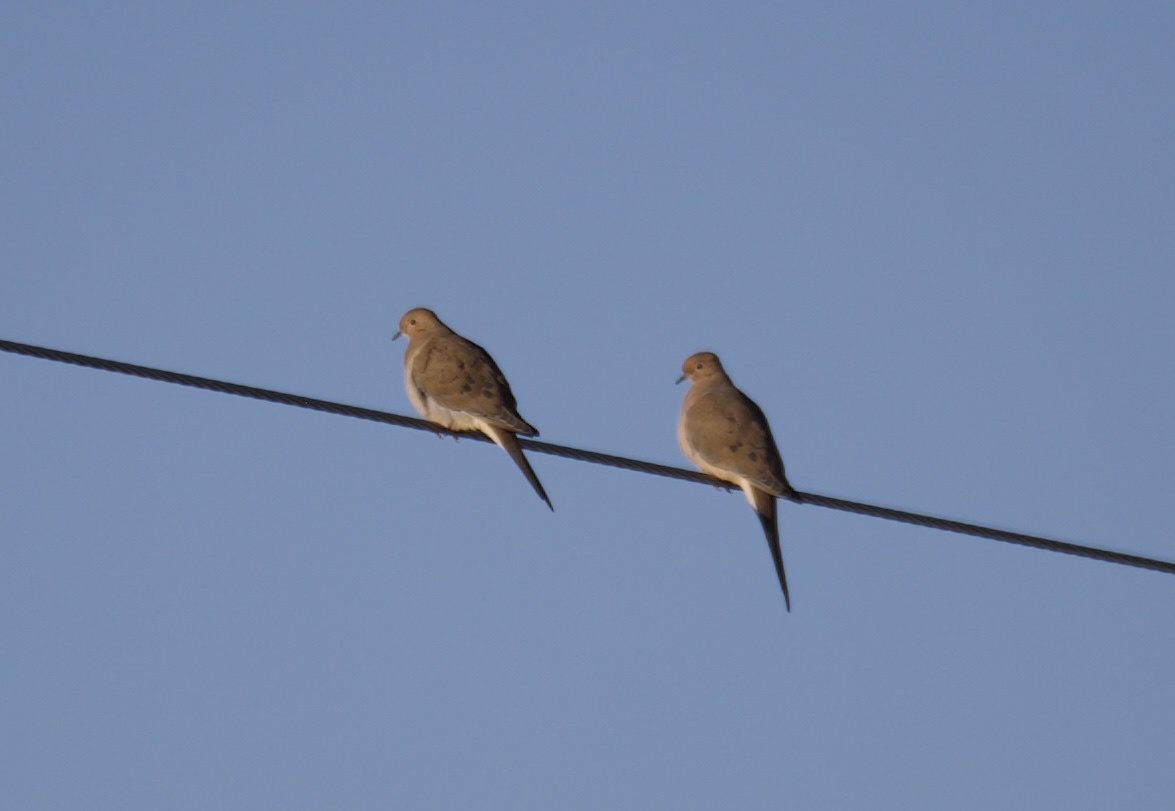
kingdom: Animalia
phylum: Chordata
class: Aves
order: Columbiformes
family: Columbidae
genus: Zenaida
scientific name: Zenaida macroura
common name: Mourning dove
